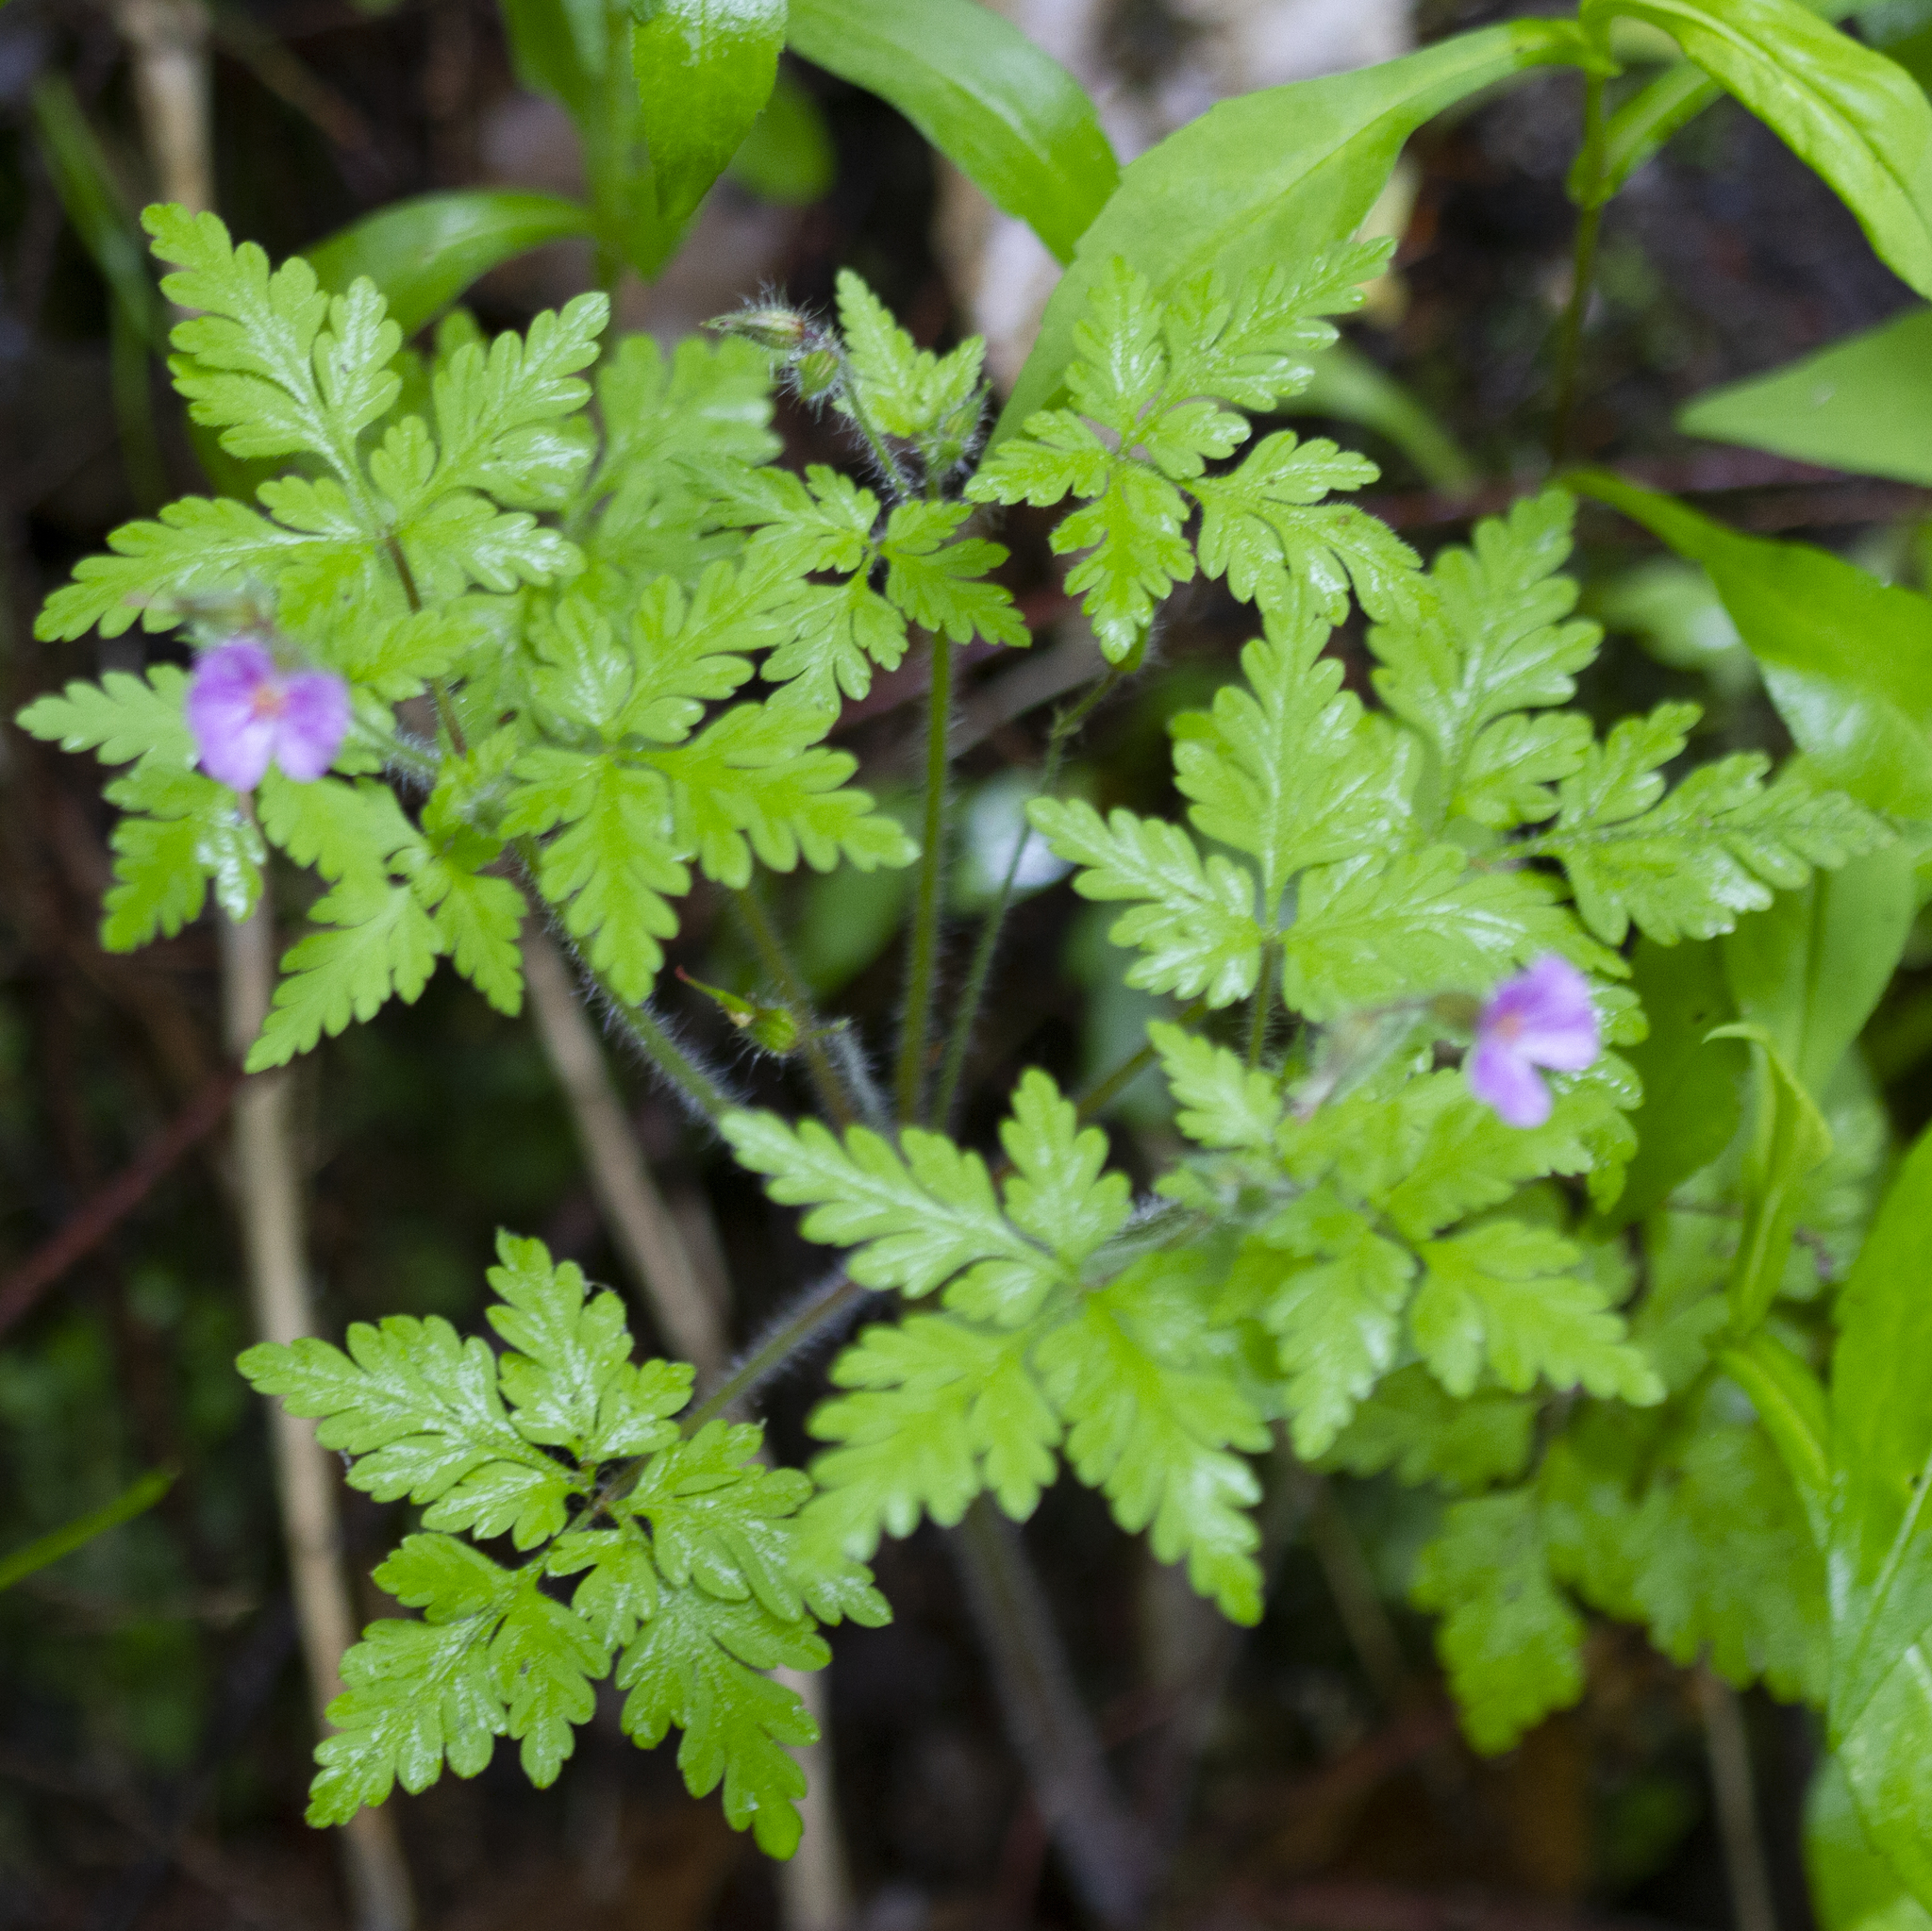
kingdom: Plantae
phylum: Tracheophyta
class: Magnoliopsida
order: Geraniales
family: Geraniaceae
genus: Geranium
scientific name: Geranium robertianum
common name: Herb-robert
